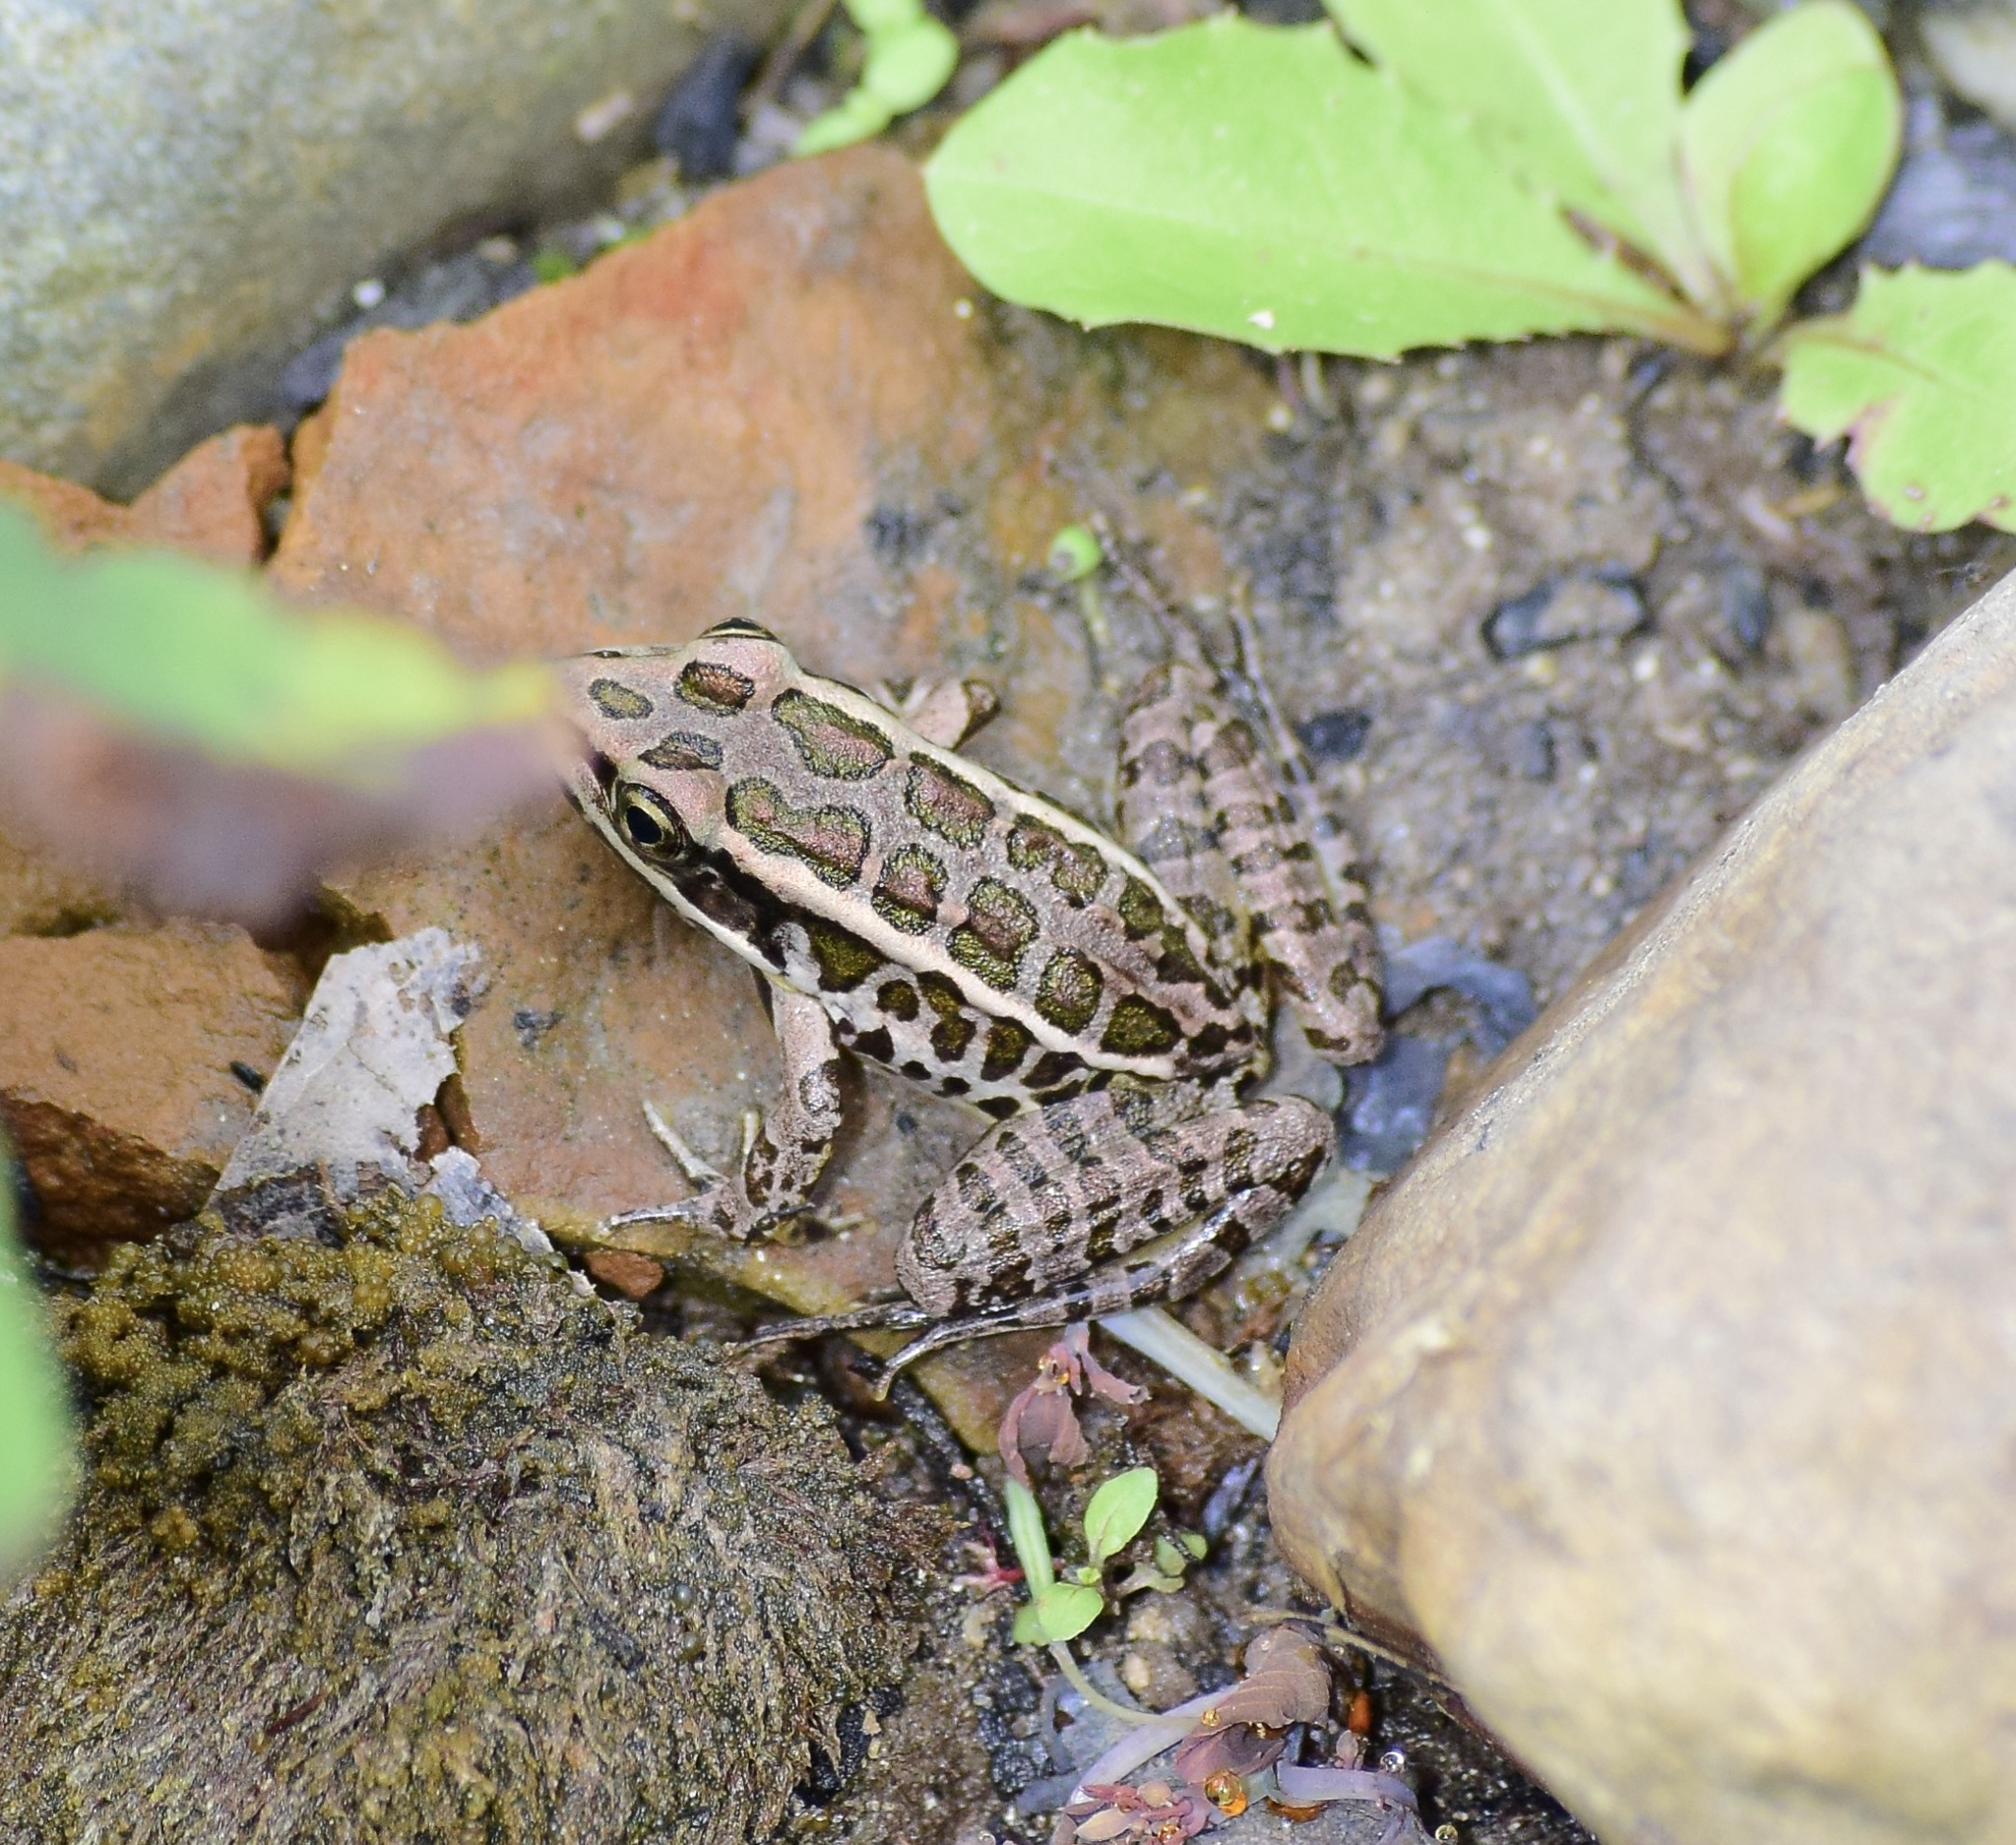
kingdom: Animalia
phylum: Chordata
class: Amphibia
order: Anura
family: Ranidae
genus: Lithobates
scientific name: Lithobates palustris
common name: Pickerel frog
